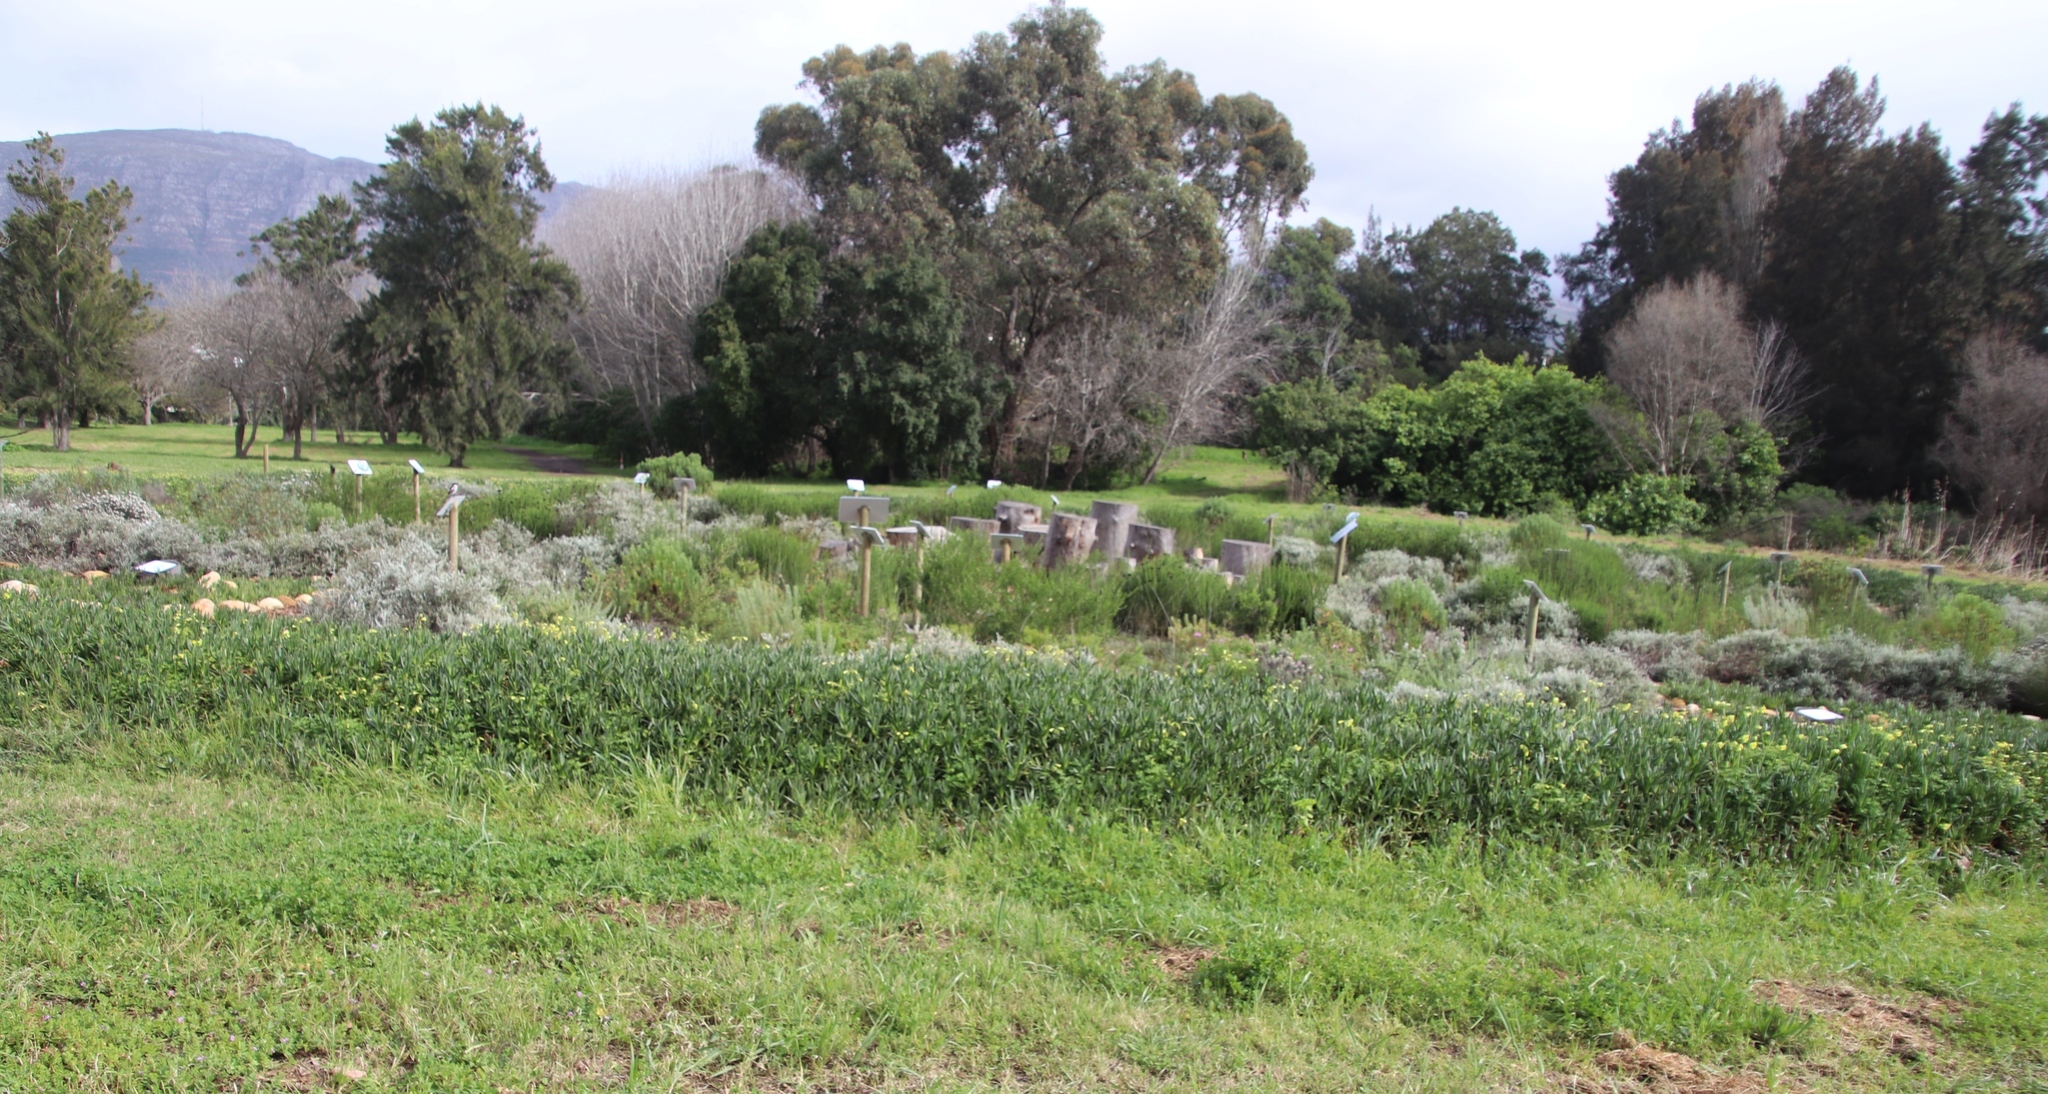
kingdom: Plantae
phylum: Tracheophyta
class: Magnoliopsida
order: Oxalidales
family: Oxalidaceae
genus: Oxalis
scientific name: Oxalis pes-caprae
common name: Bermuda-buttercup
